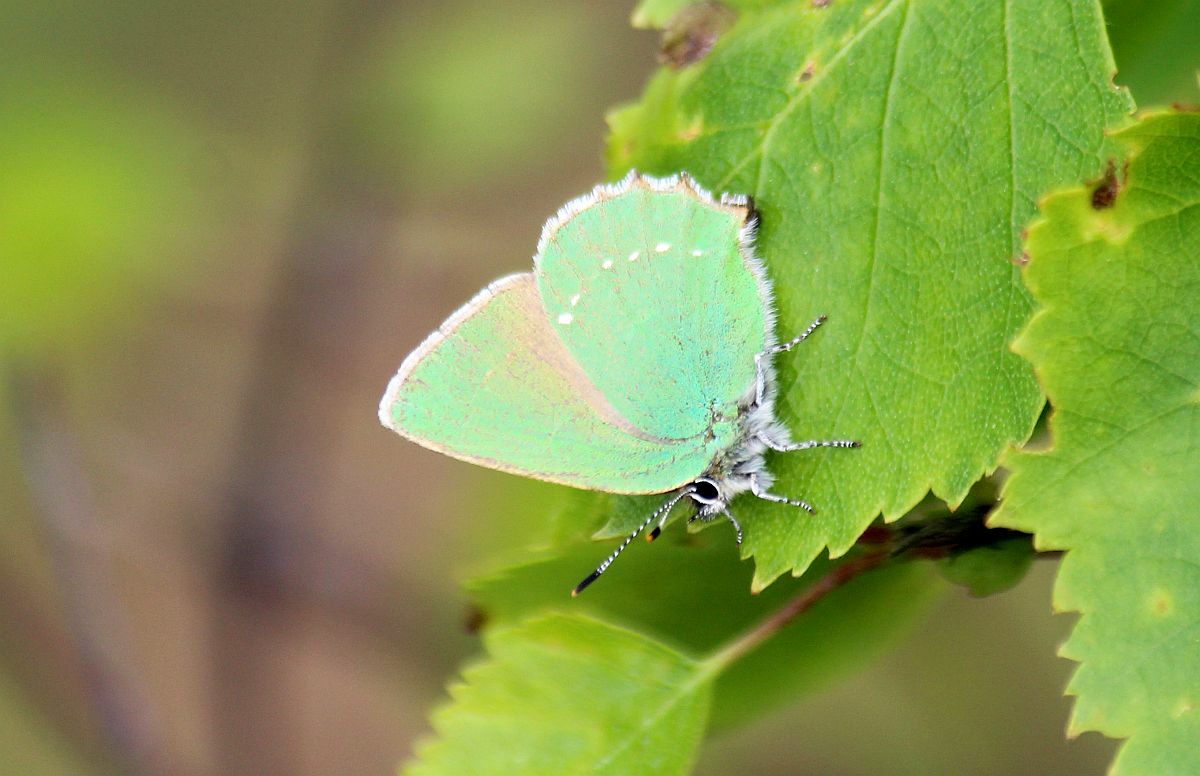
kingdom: Animalia
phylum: Arthropoda
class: Insecta
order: Lepidoptera
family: Lycaenidae
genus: Callophrys
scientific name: Callophrys rubi
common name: Green hairstreak
